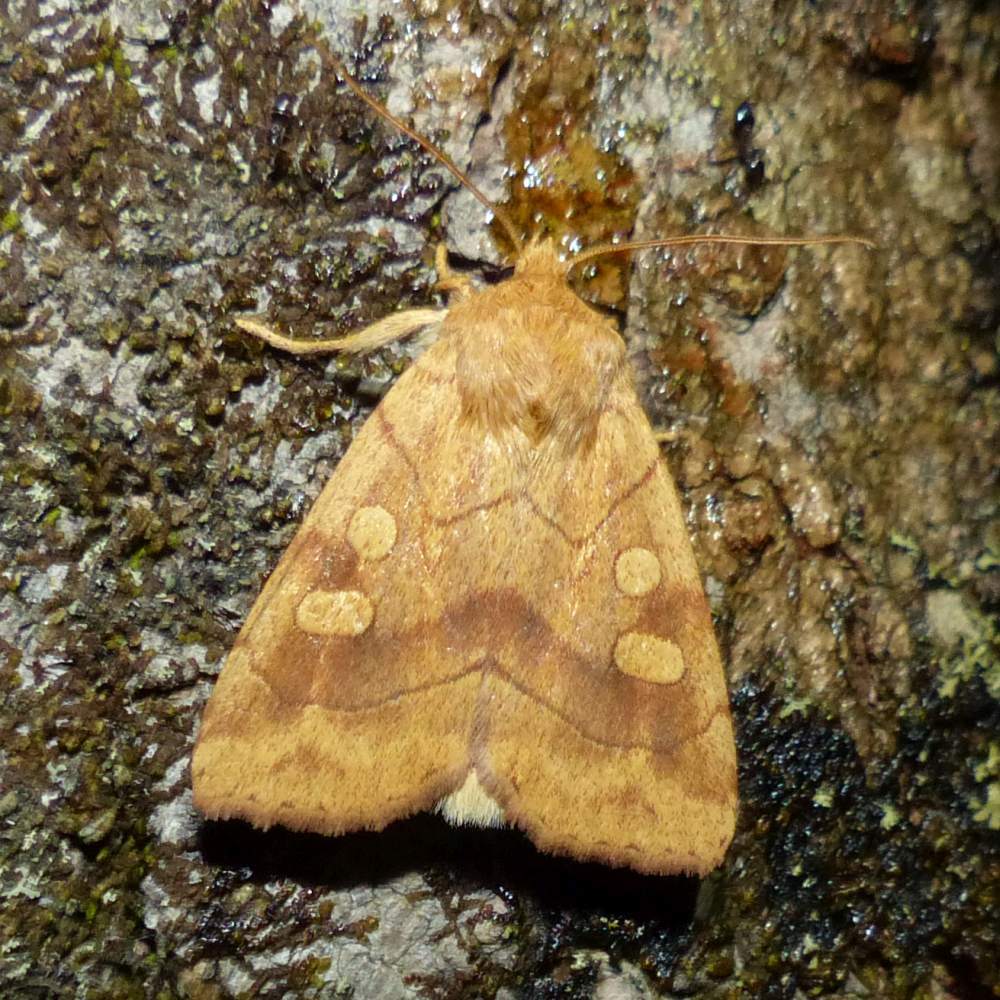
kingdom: Animalia
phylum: Arthropoda
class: Insecta
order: Lepidoptera
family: Noctuidae
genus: Enargia
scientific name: Enargia decolor
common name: Aspen twoleaf tier moth
